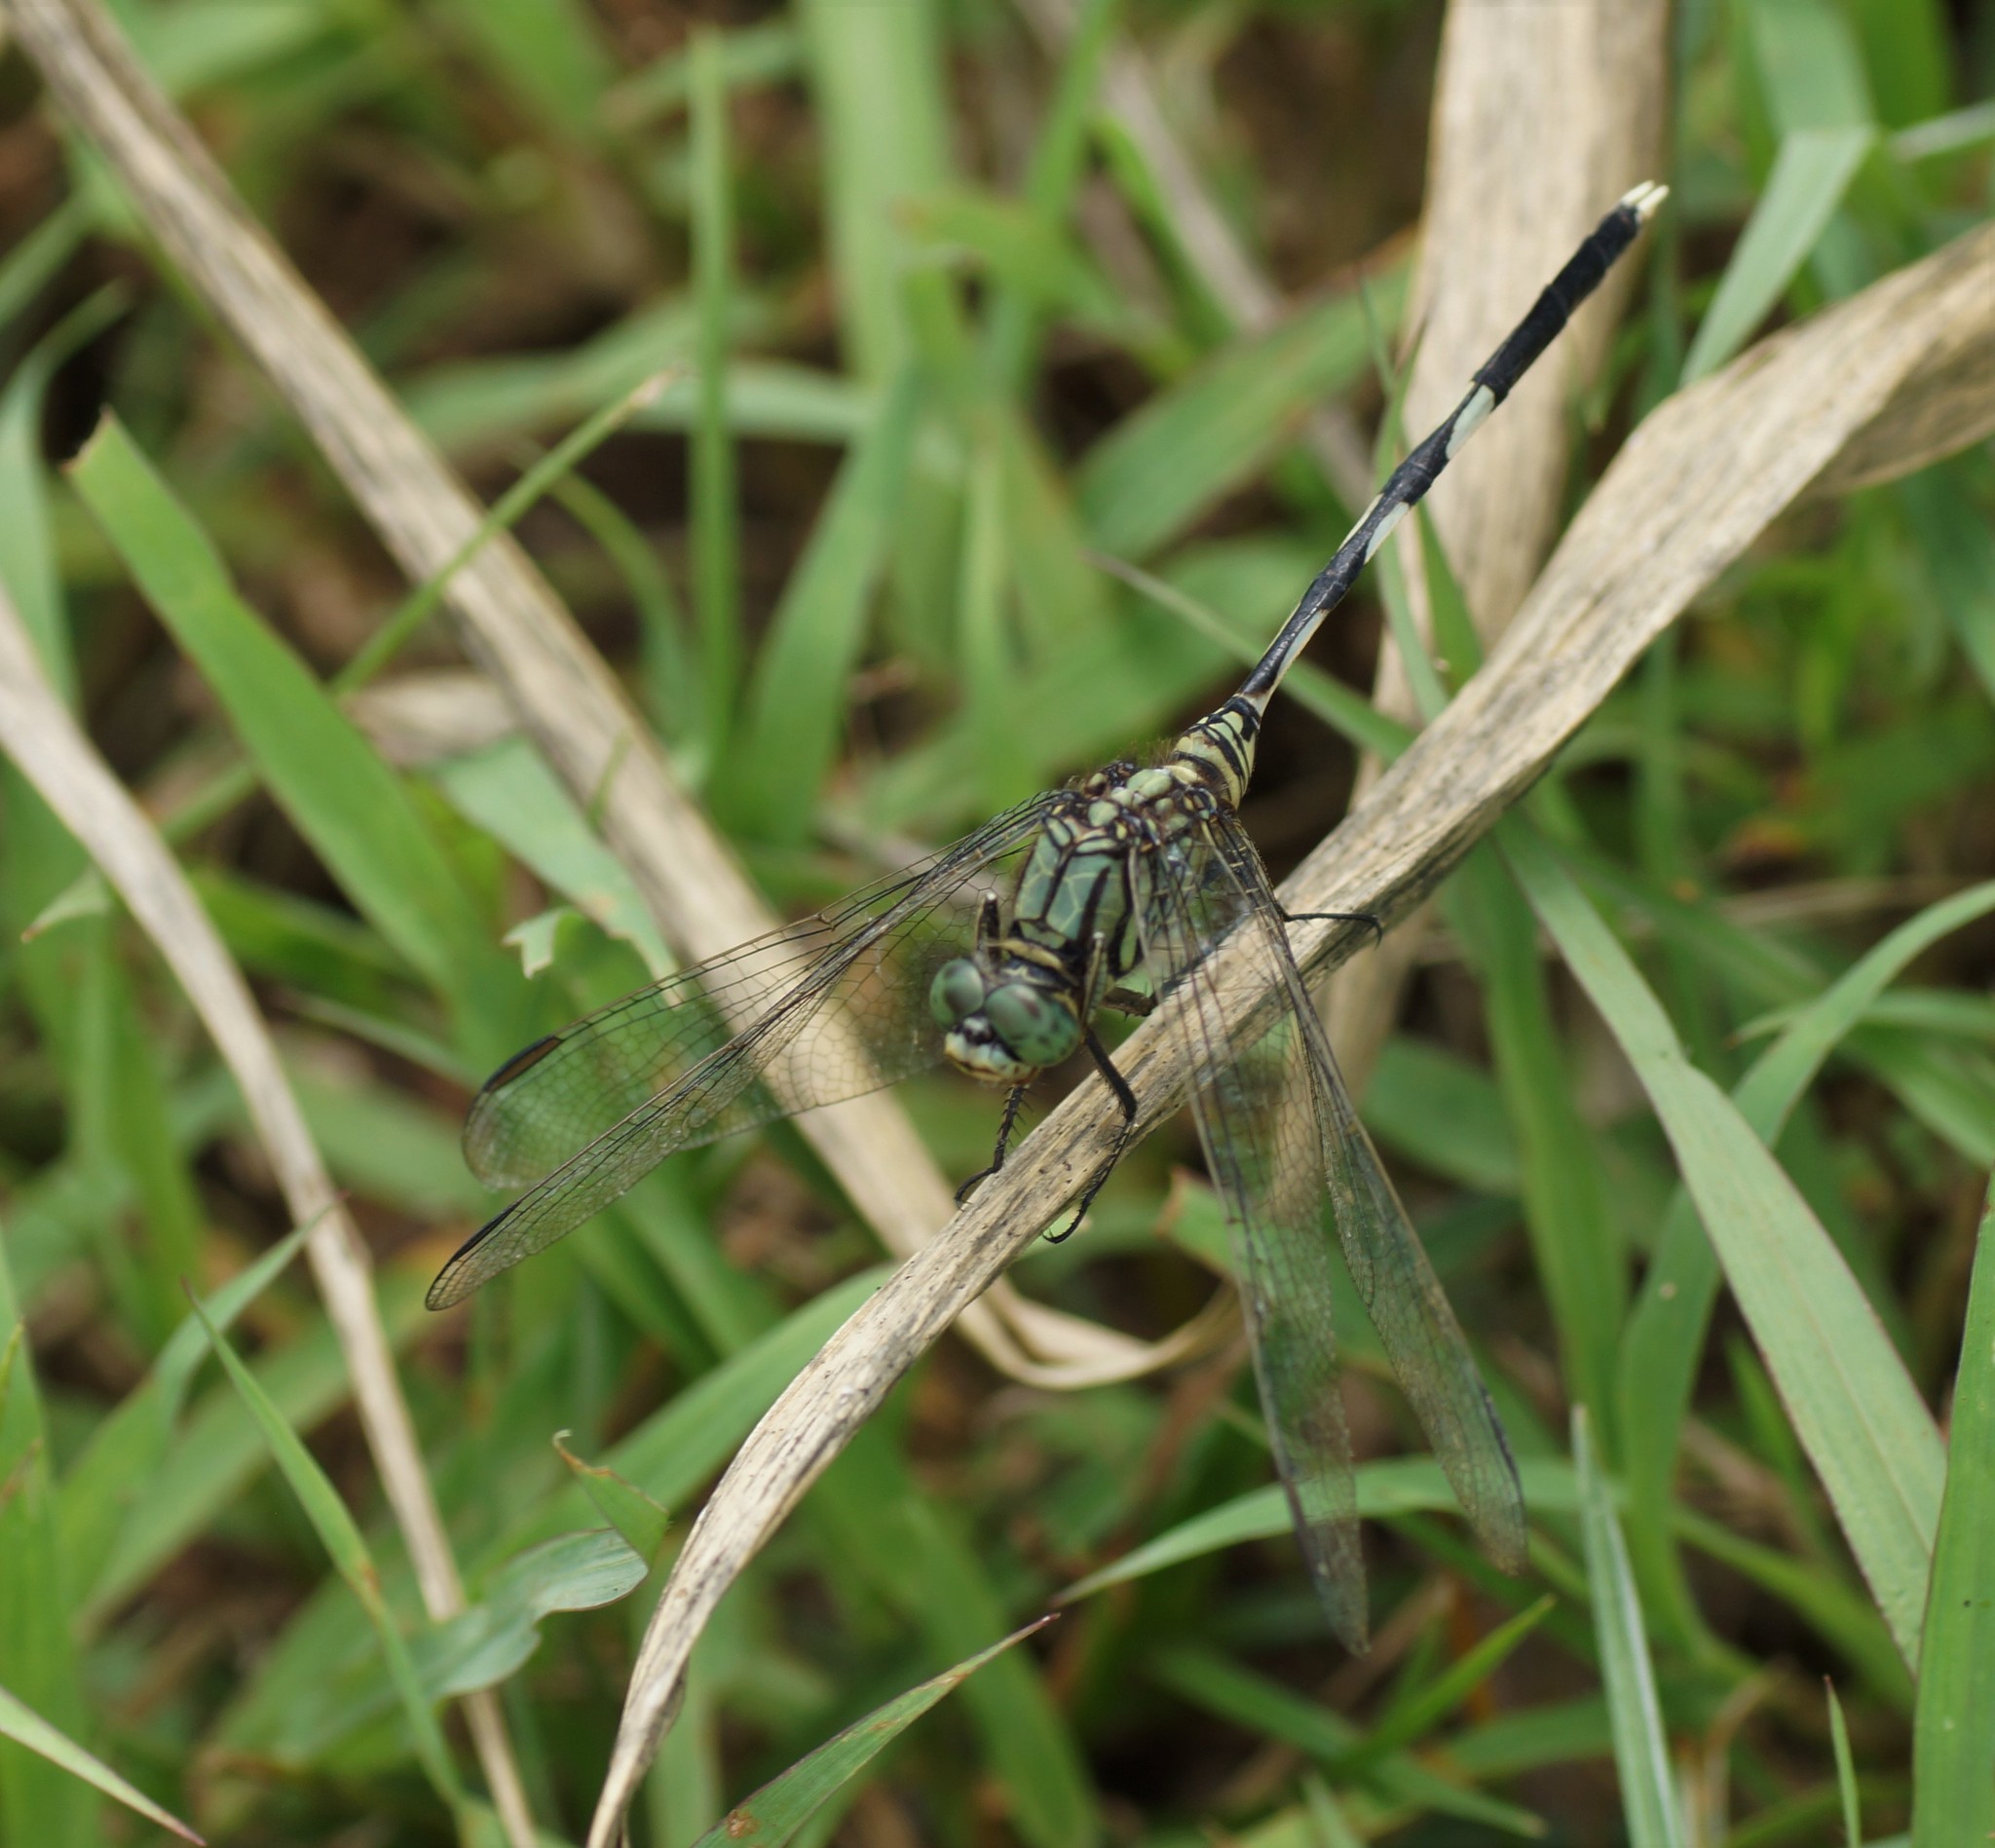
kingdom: Animalia
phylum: Arthropoda
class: Insecta
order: Odonata
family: Libellulidae
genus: Orthetrum
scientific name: Orthetrum sabina
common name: Slender skimmer
